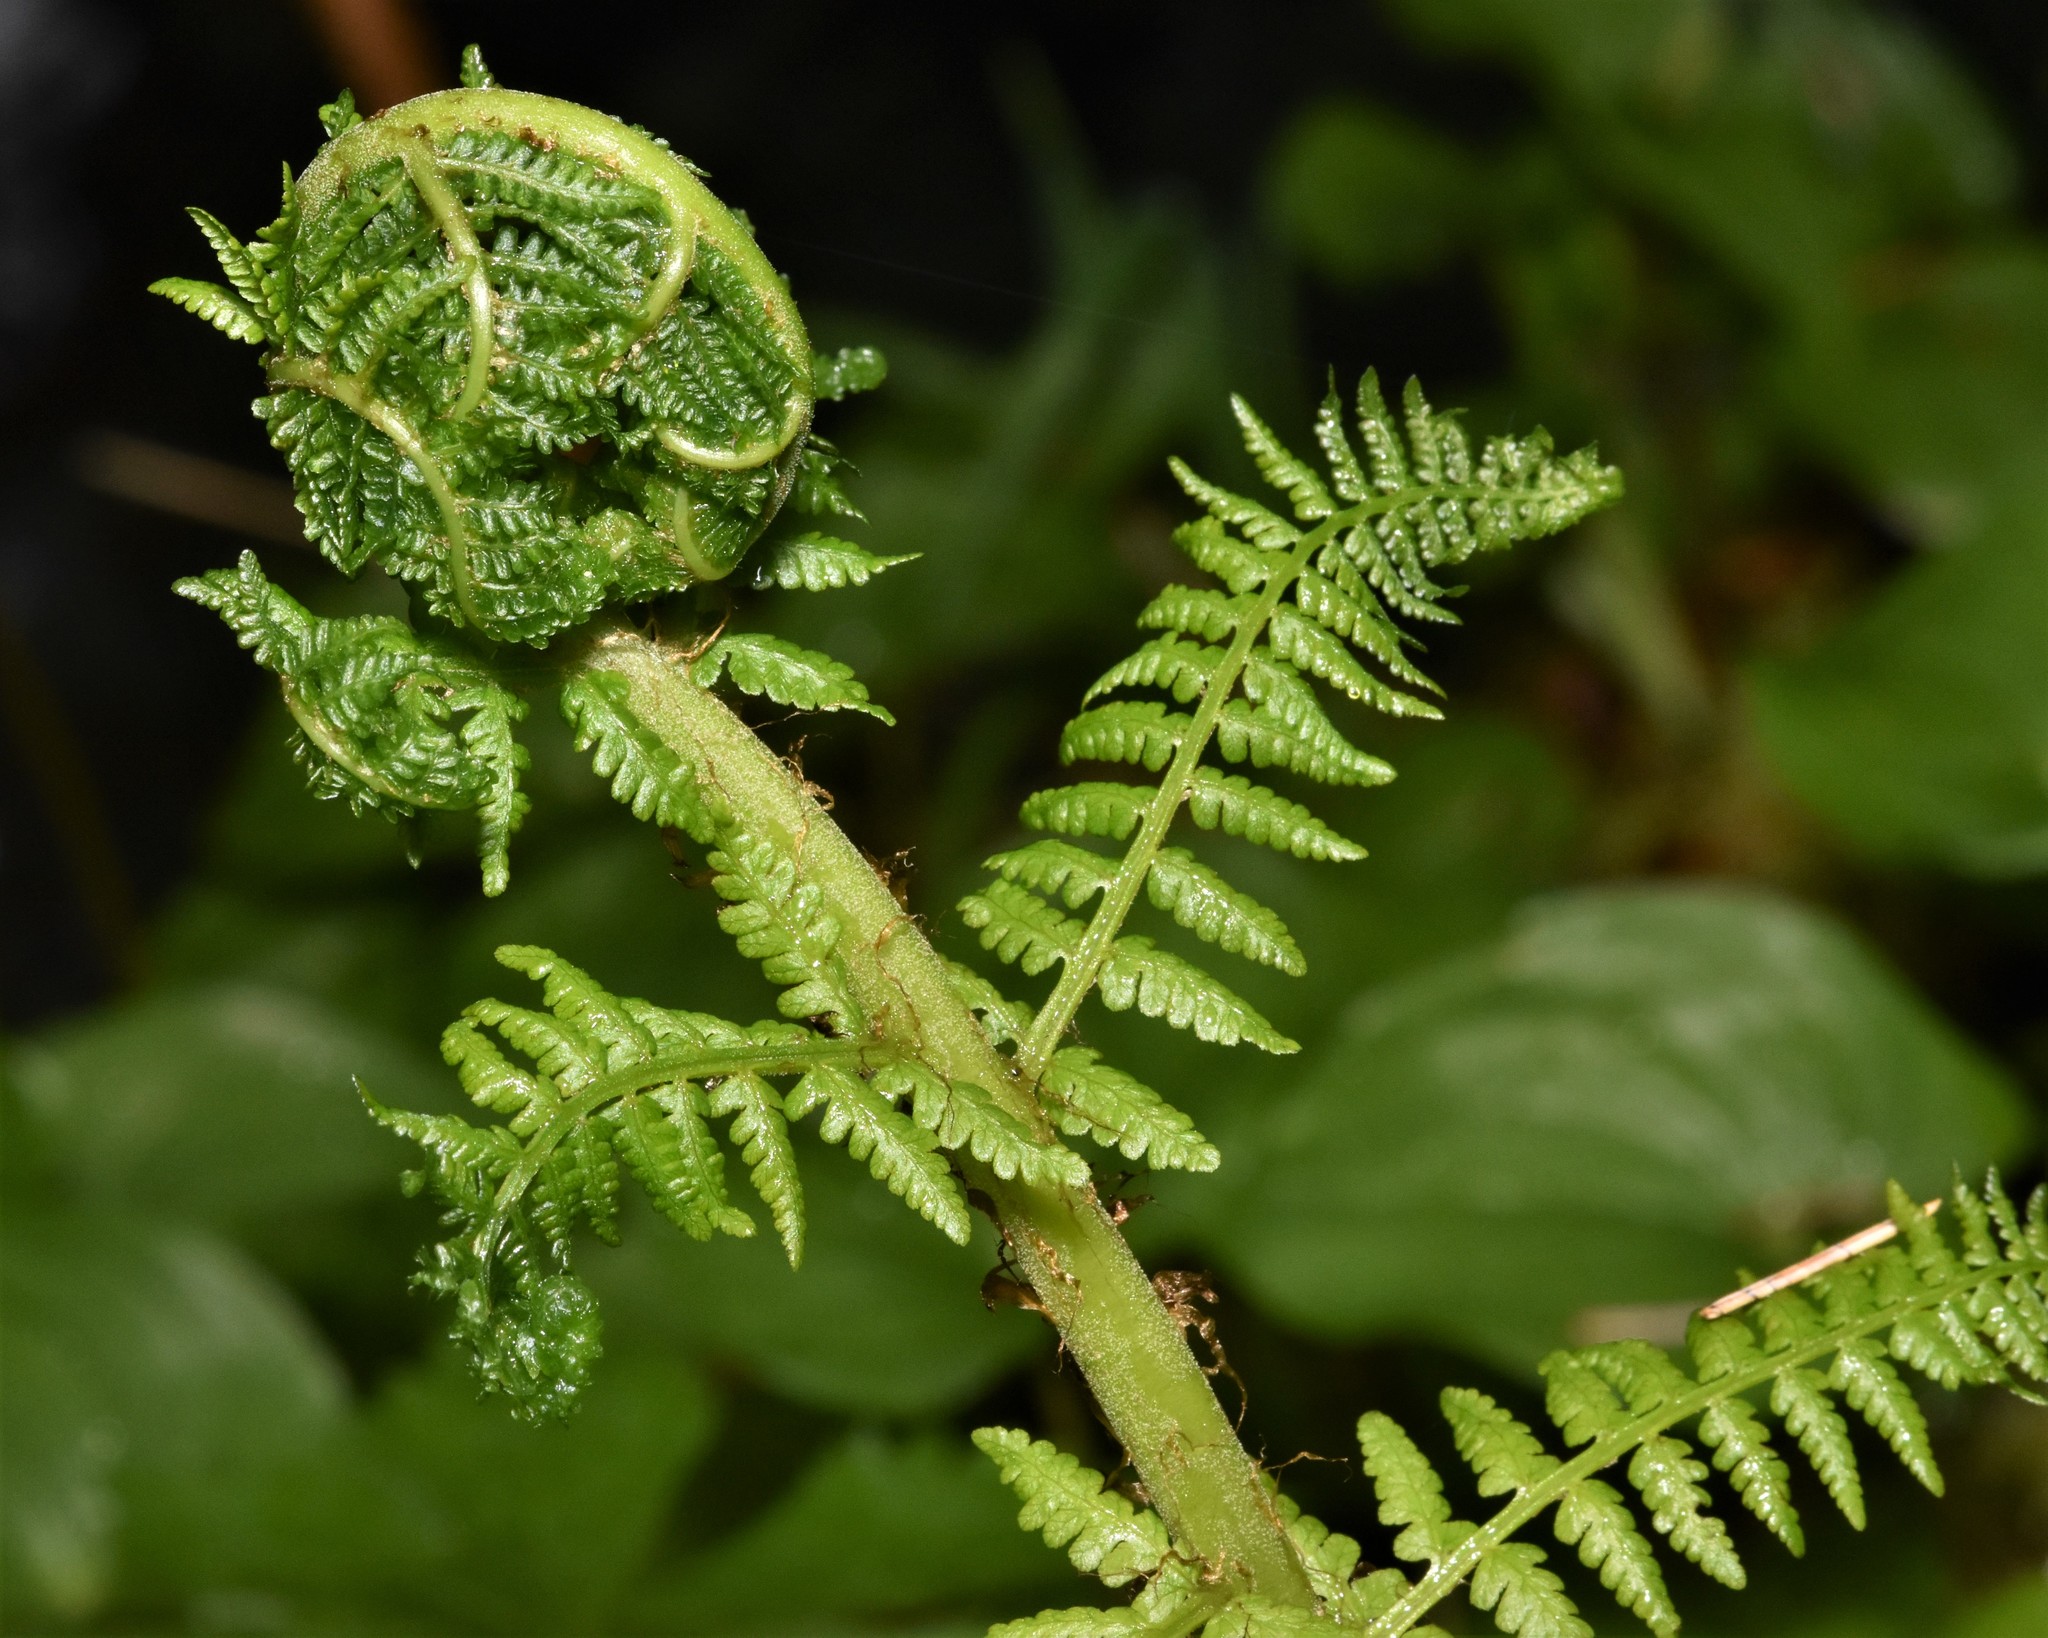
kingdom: Plantae
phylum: Tracheophyta
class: Polypodiopsida
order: Polypodiales
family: Athyriaceae
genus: Athyrium
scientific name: Athyrium filix-femina
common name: Lady fern
